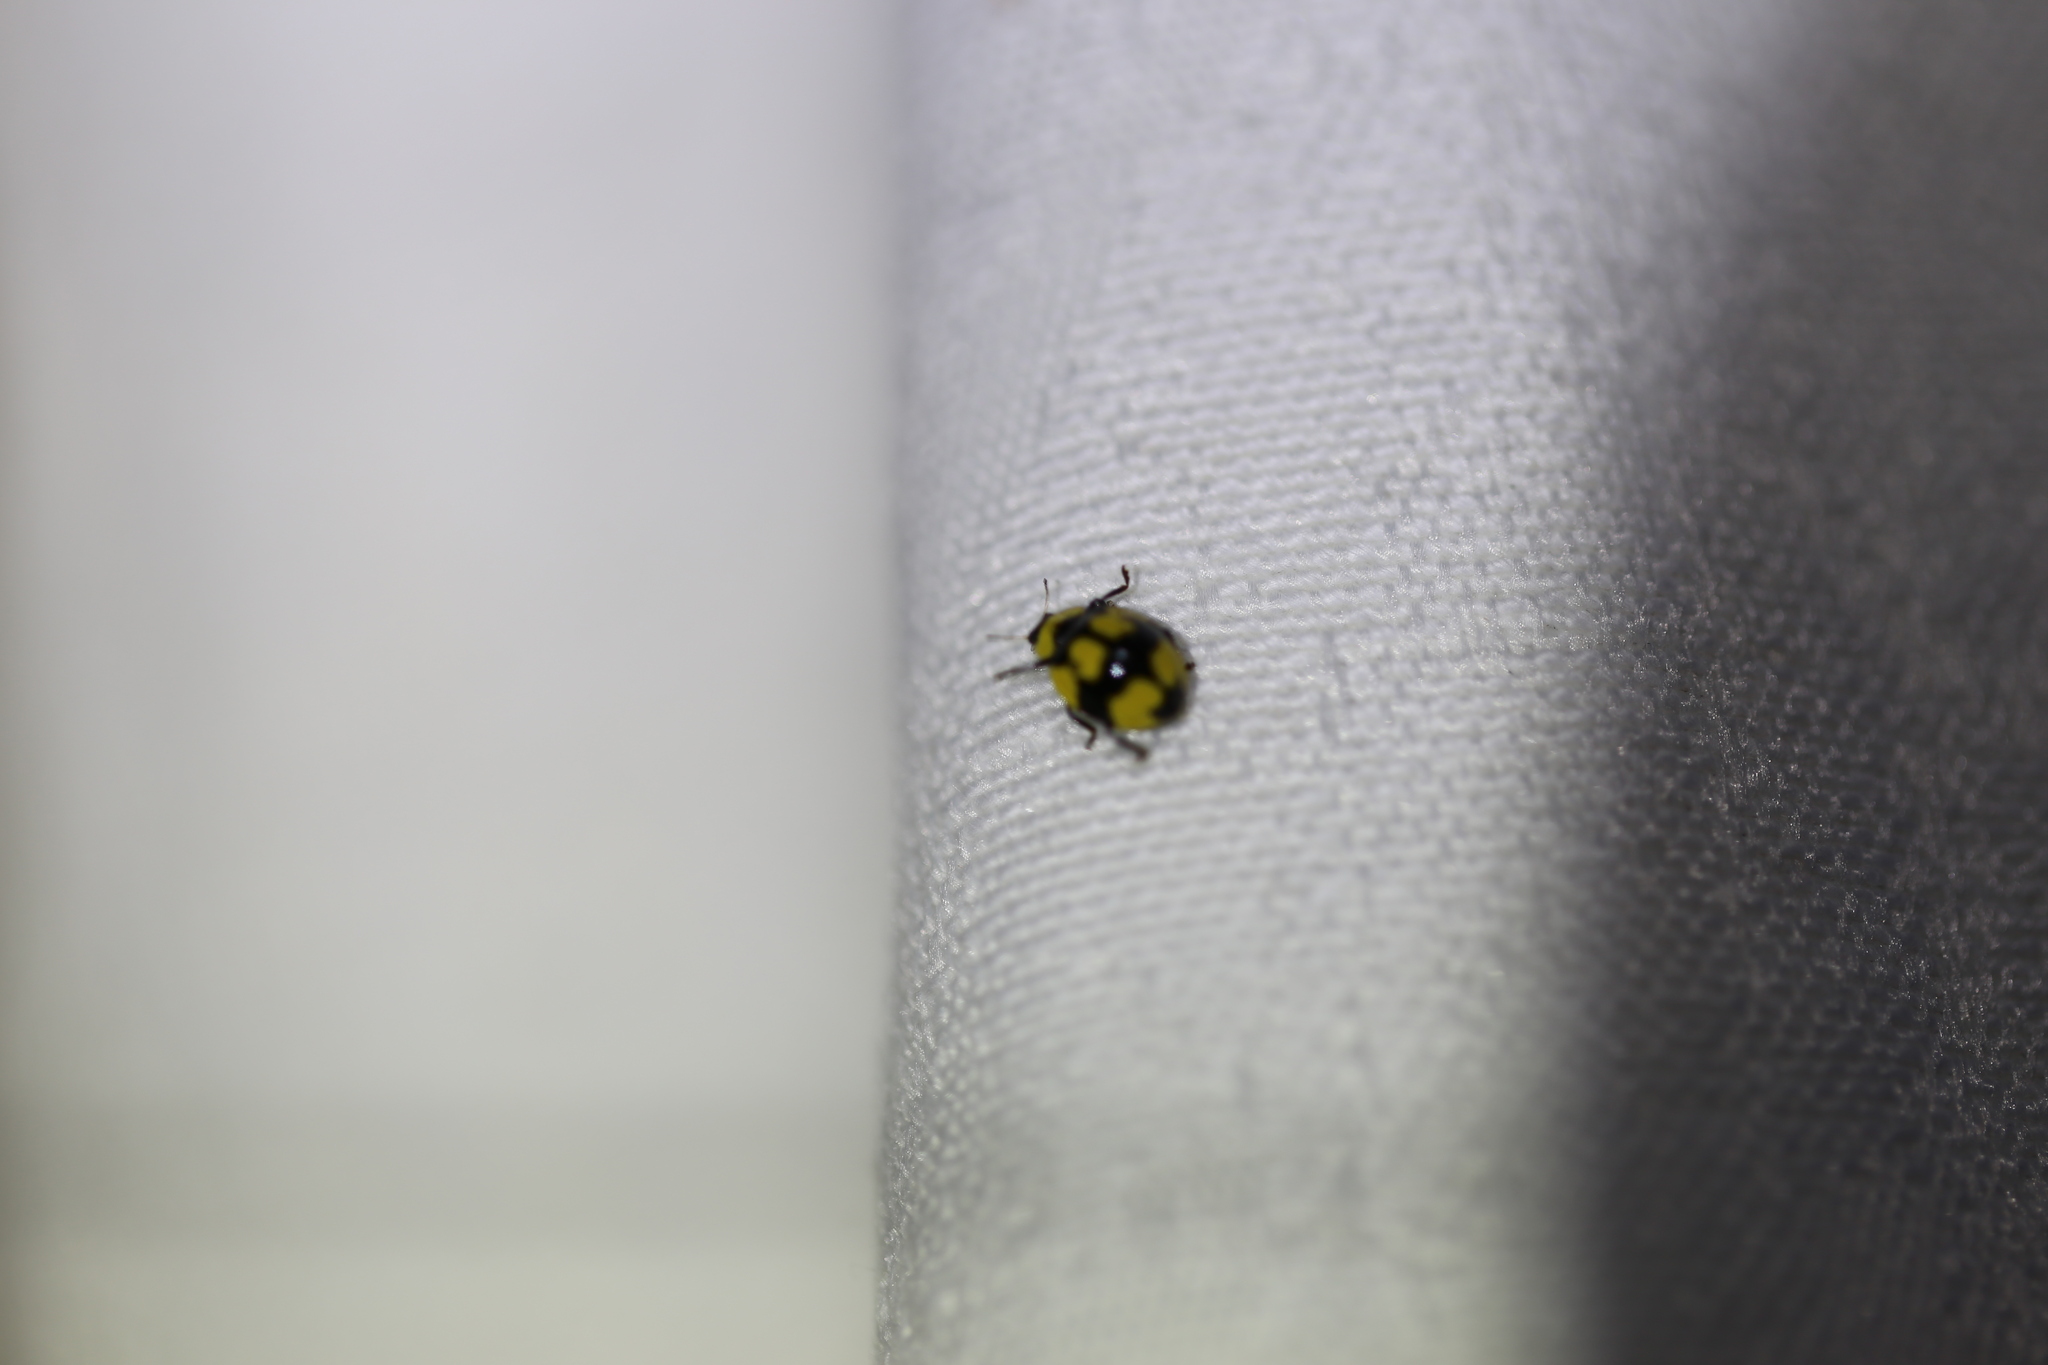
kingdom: Animalia
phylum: Arthropoda
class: Insecta
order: Coleoptera
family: Coccinellidae
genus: Illeis
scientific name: Illeis galbula
